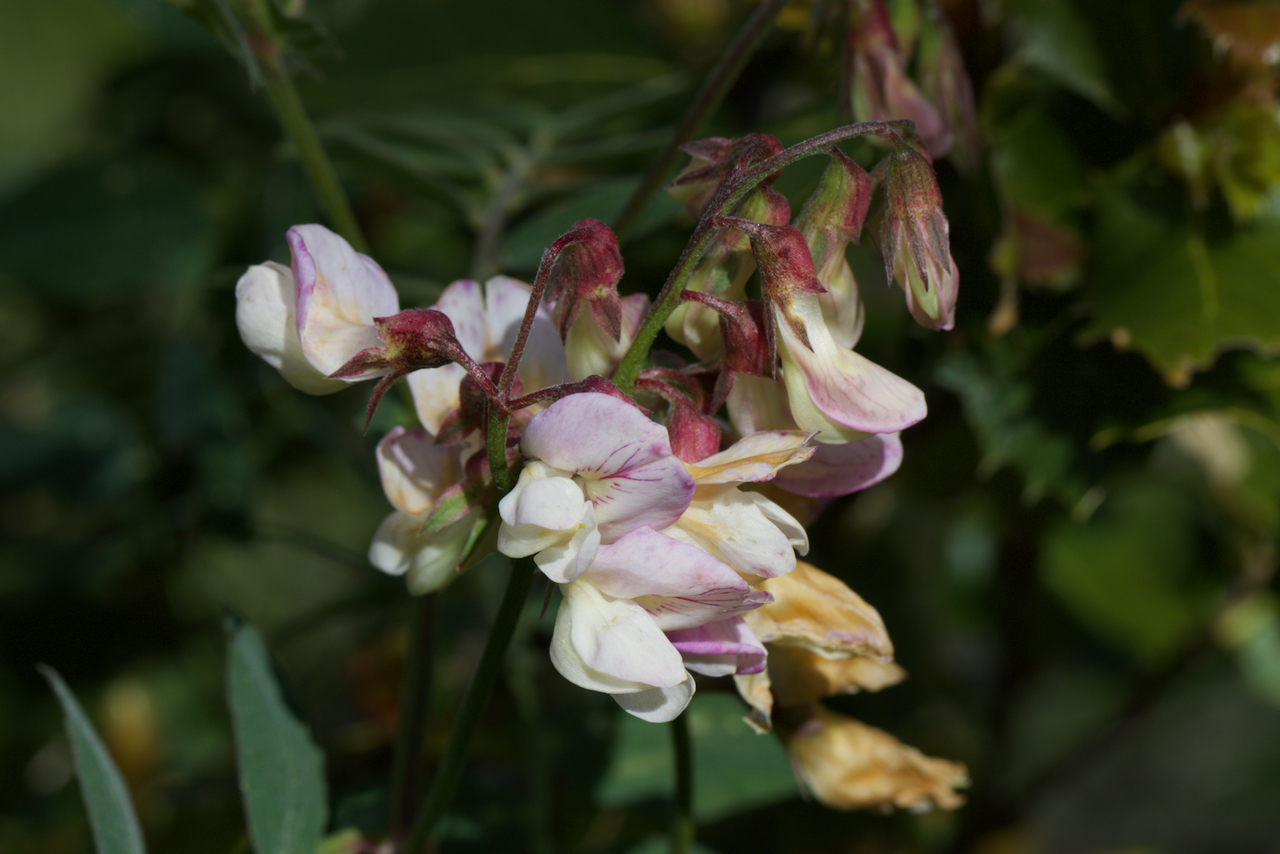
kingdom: Plantae
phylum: Tracheophyta
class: Magnoliopsida
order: Fabales
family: Fabaceae
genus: Lathyrus
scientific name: Lathyrus vestitus
